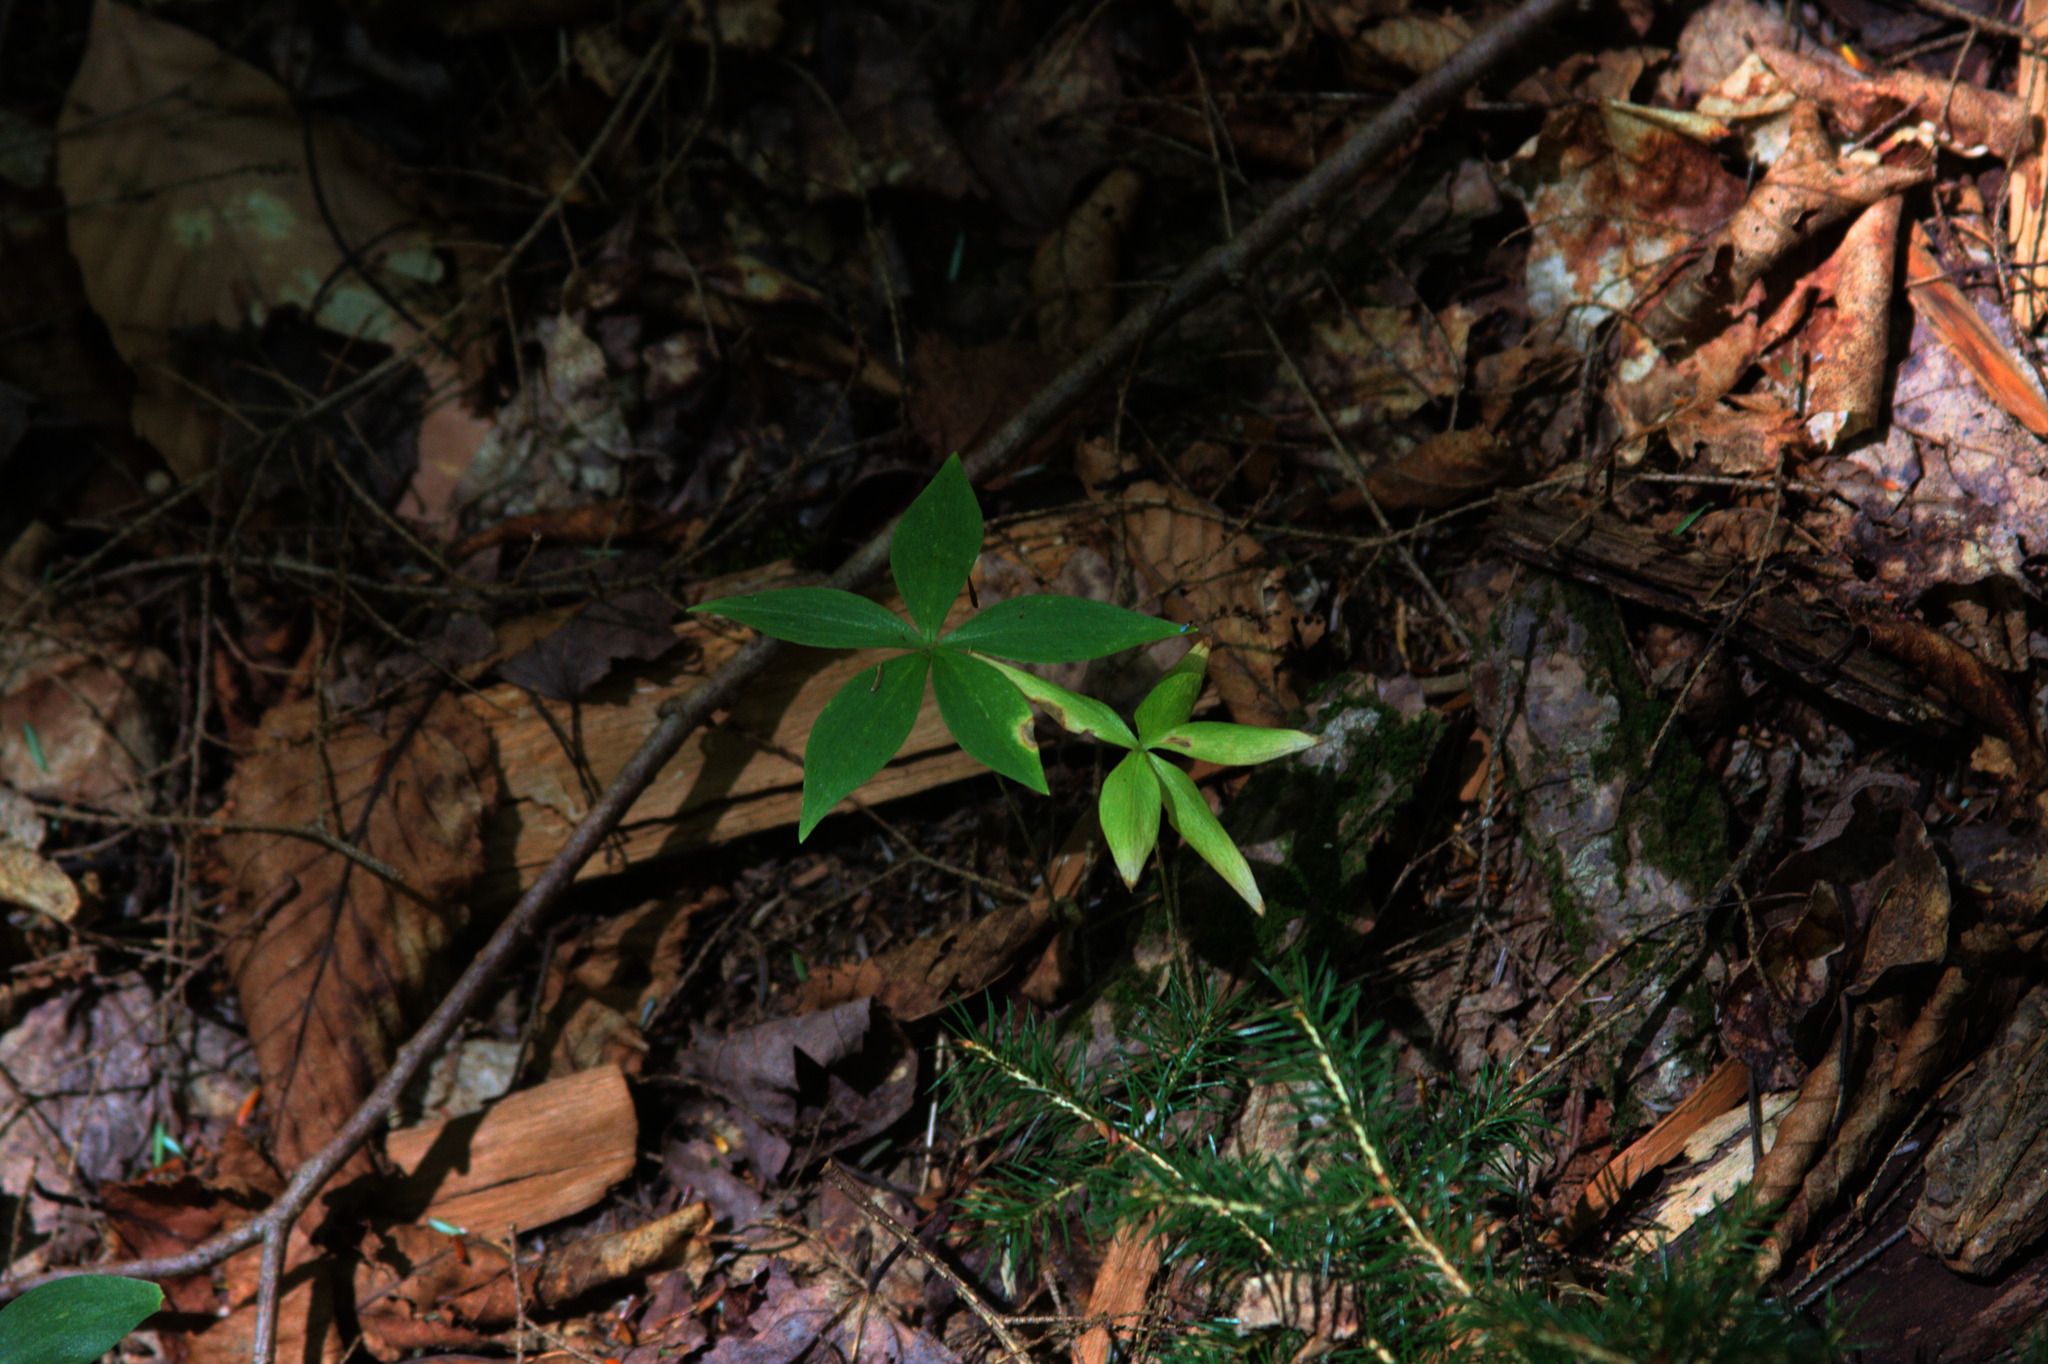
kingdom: Plantae
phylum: Tracheophyta
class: Liliopsida
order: Liliales
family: Liliaceae
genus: Medeola
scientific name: Medeola virginiana
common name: Indian cucumber-root
